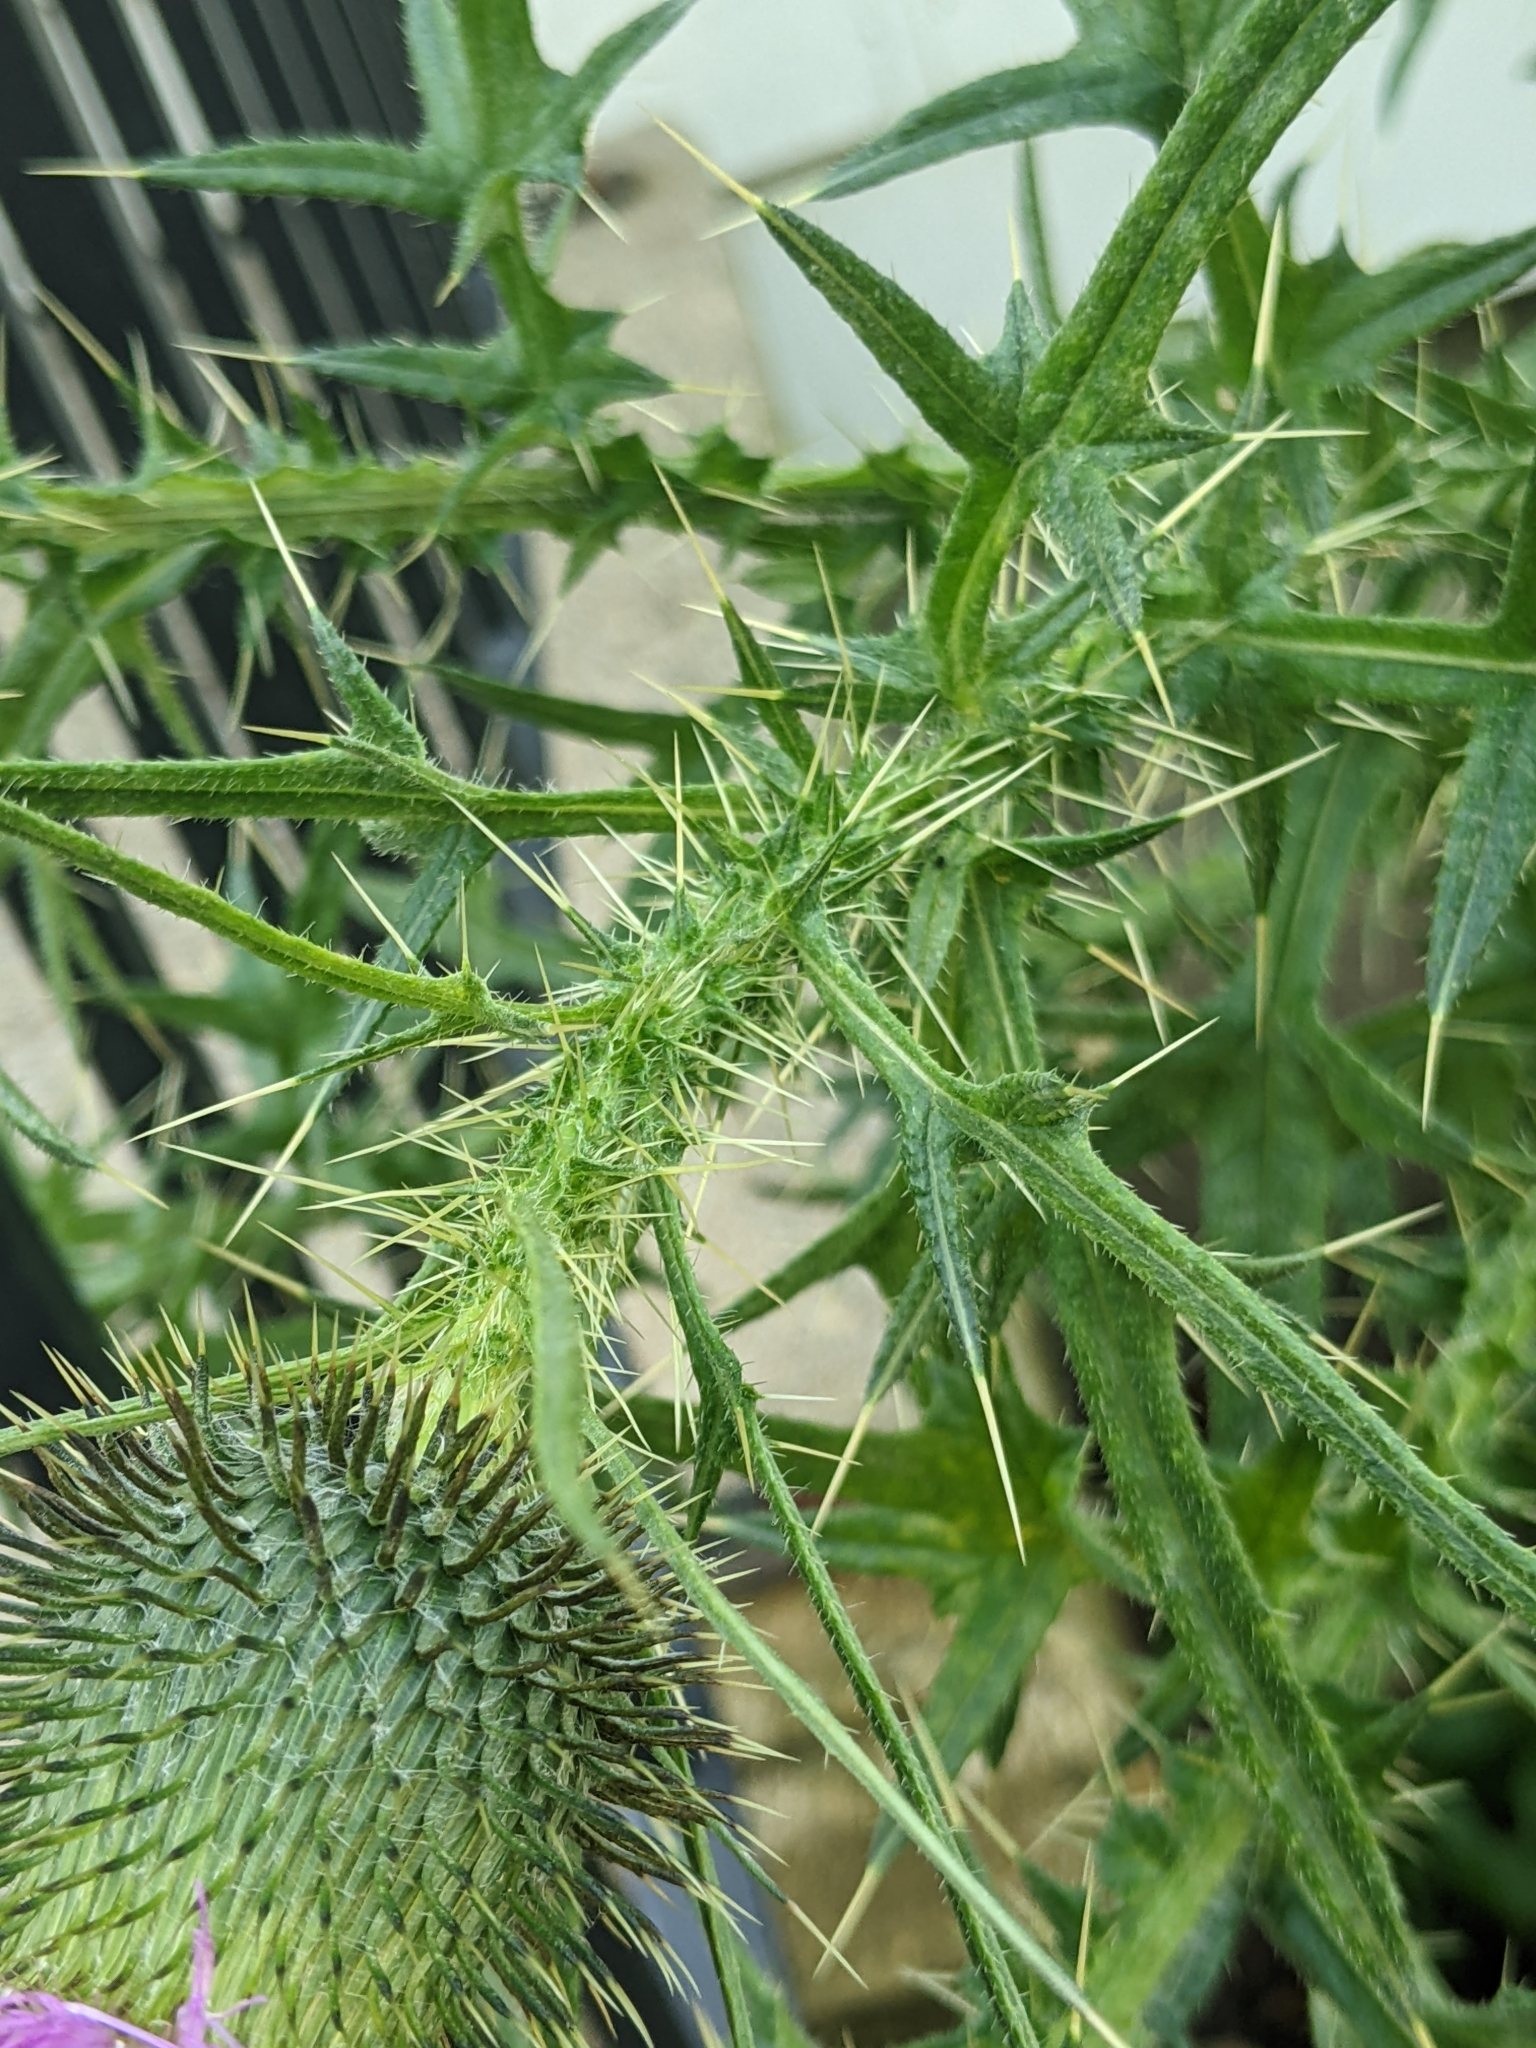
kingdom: Plantae
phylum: Tracheophyta
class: Magnoliopsida
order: Asterales
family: Asteraceae
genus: Cirsium
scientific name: Cirsium vulgare
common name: Bull thistle
